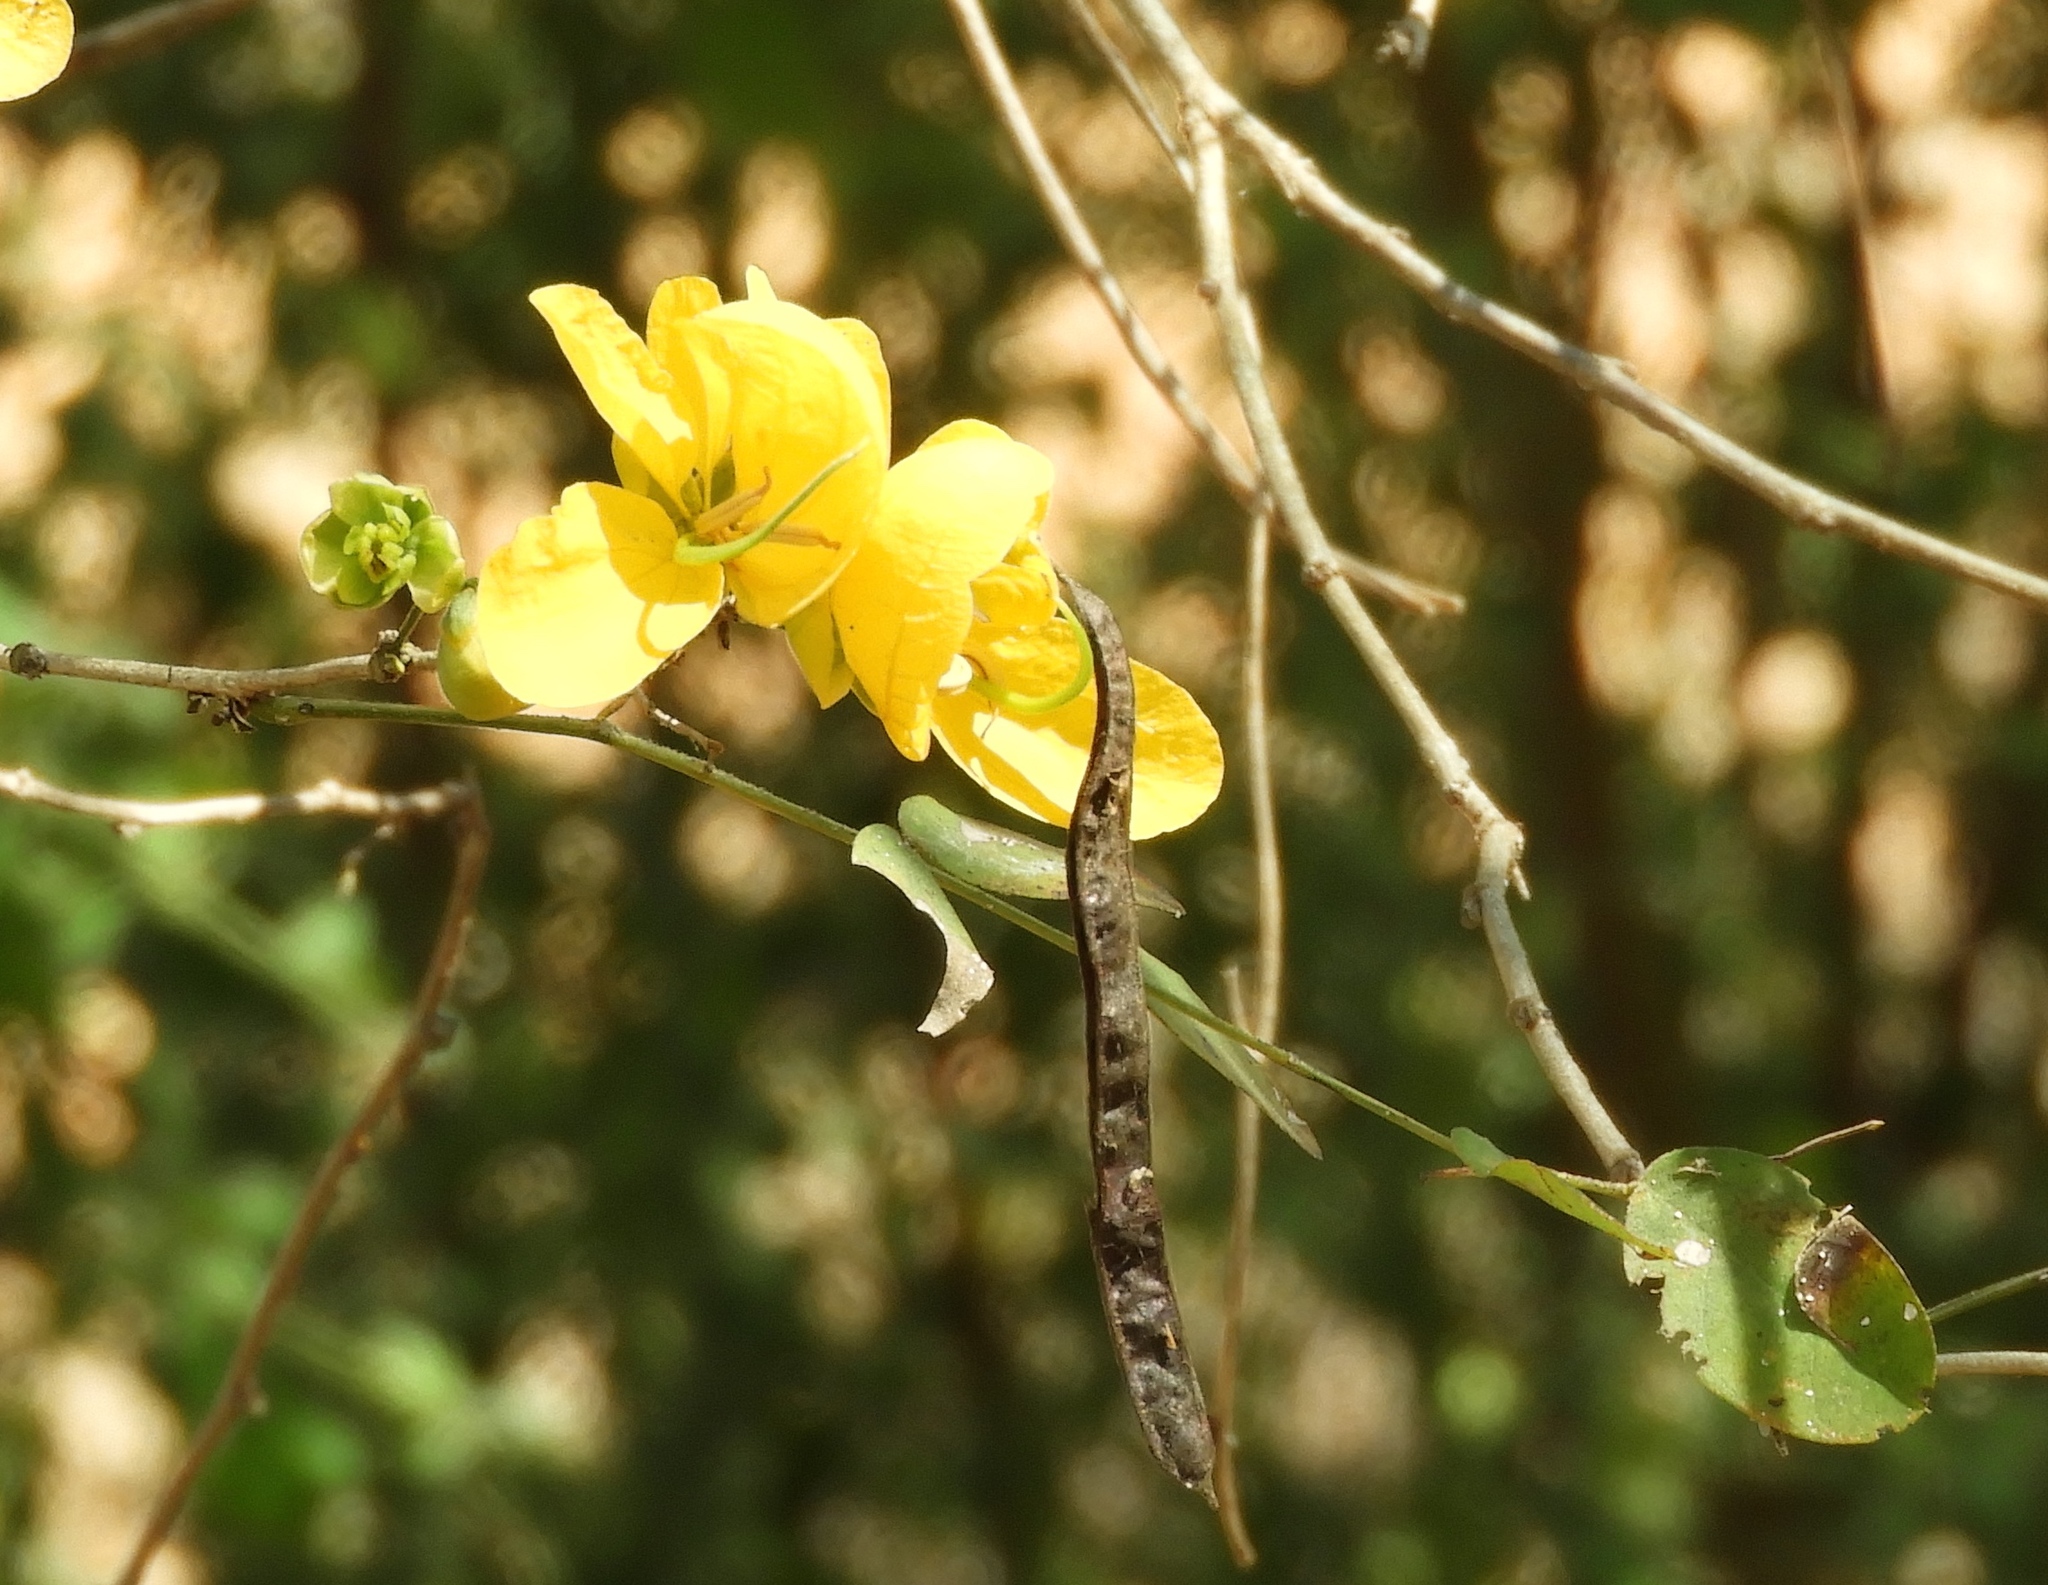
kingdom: Plantae
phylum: Tracheophyta
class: Magnoliopsida
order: Fabales
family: Fabaceae
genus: Senna
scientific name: Senna pallida
